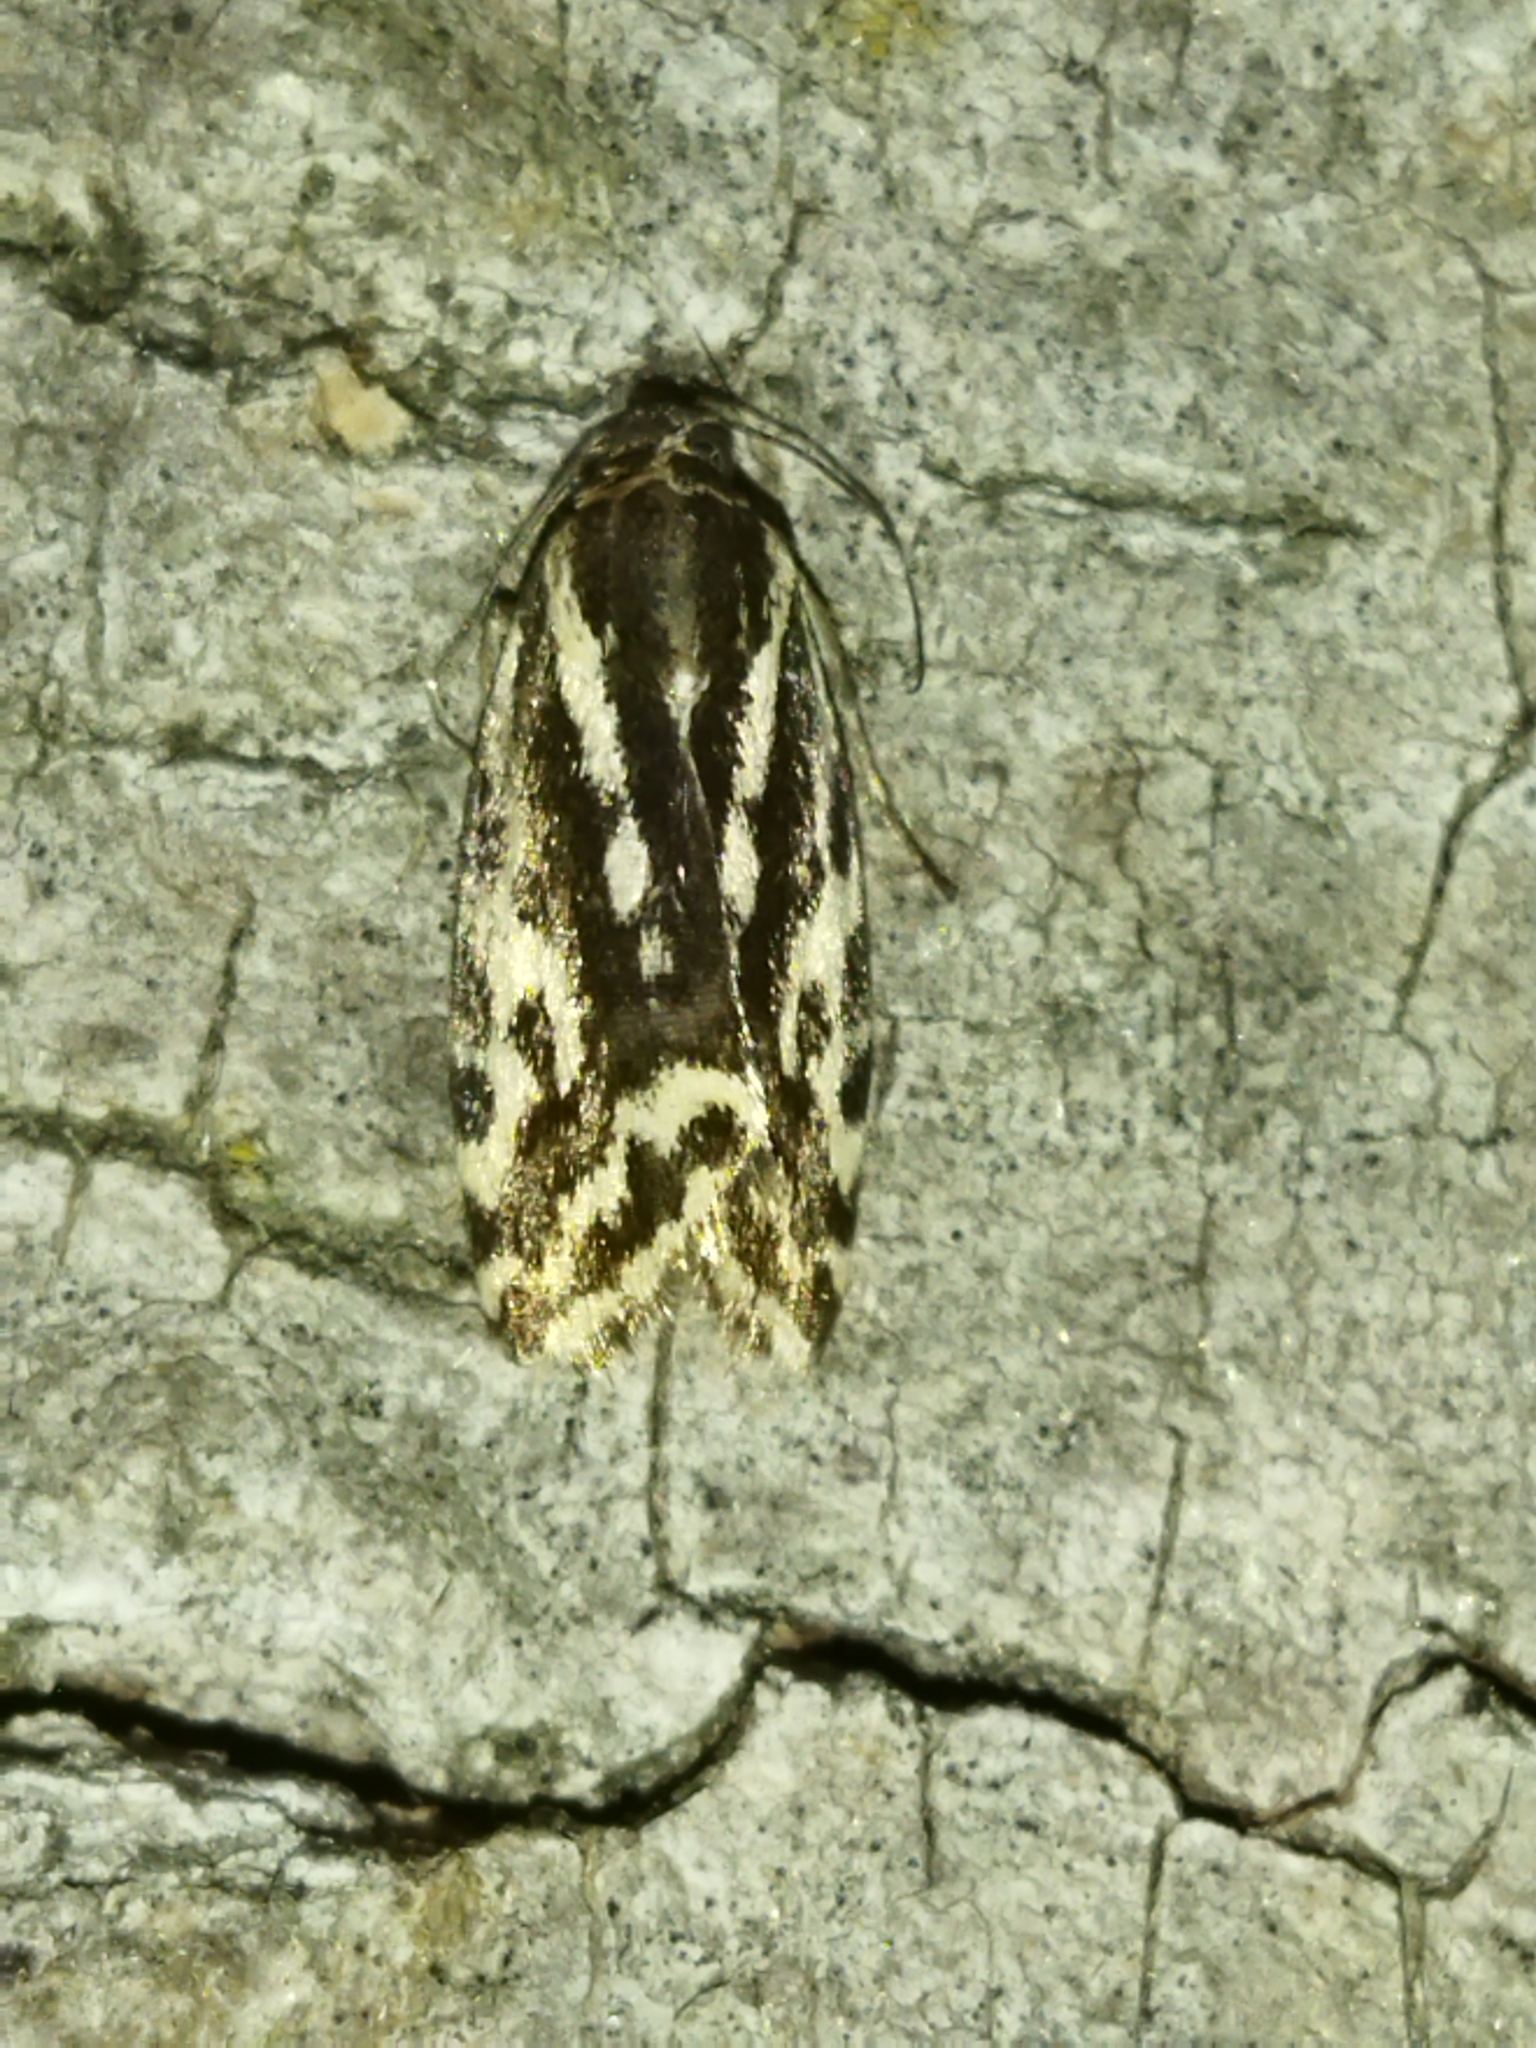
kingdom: Animalia
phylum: Arthropoda
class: Insecta
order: Lepidoptera
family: Noctuidae
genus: Acontia
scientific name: Acontia trabealis
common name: Spotted sulphur
